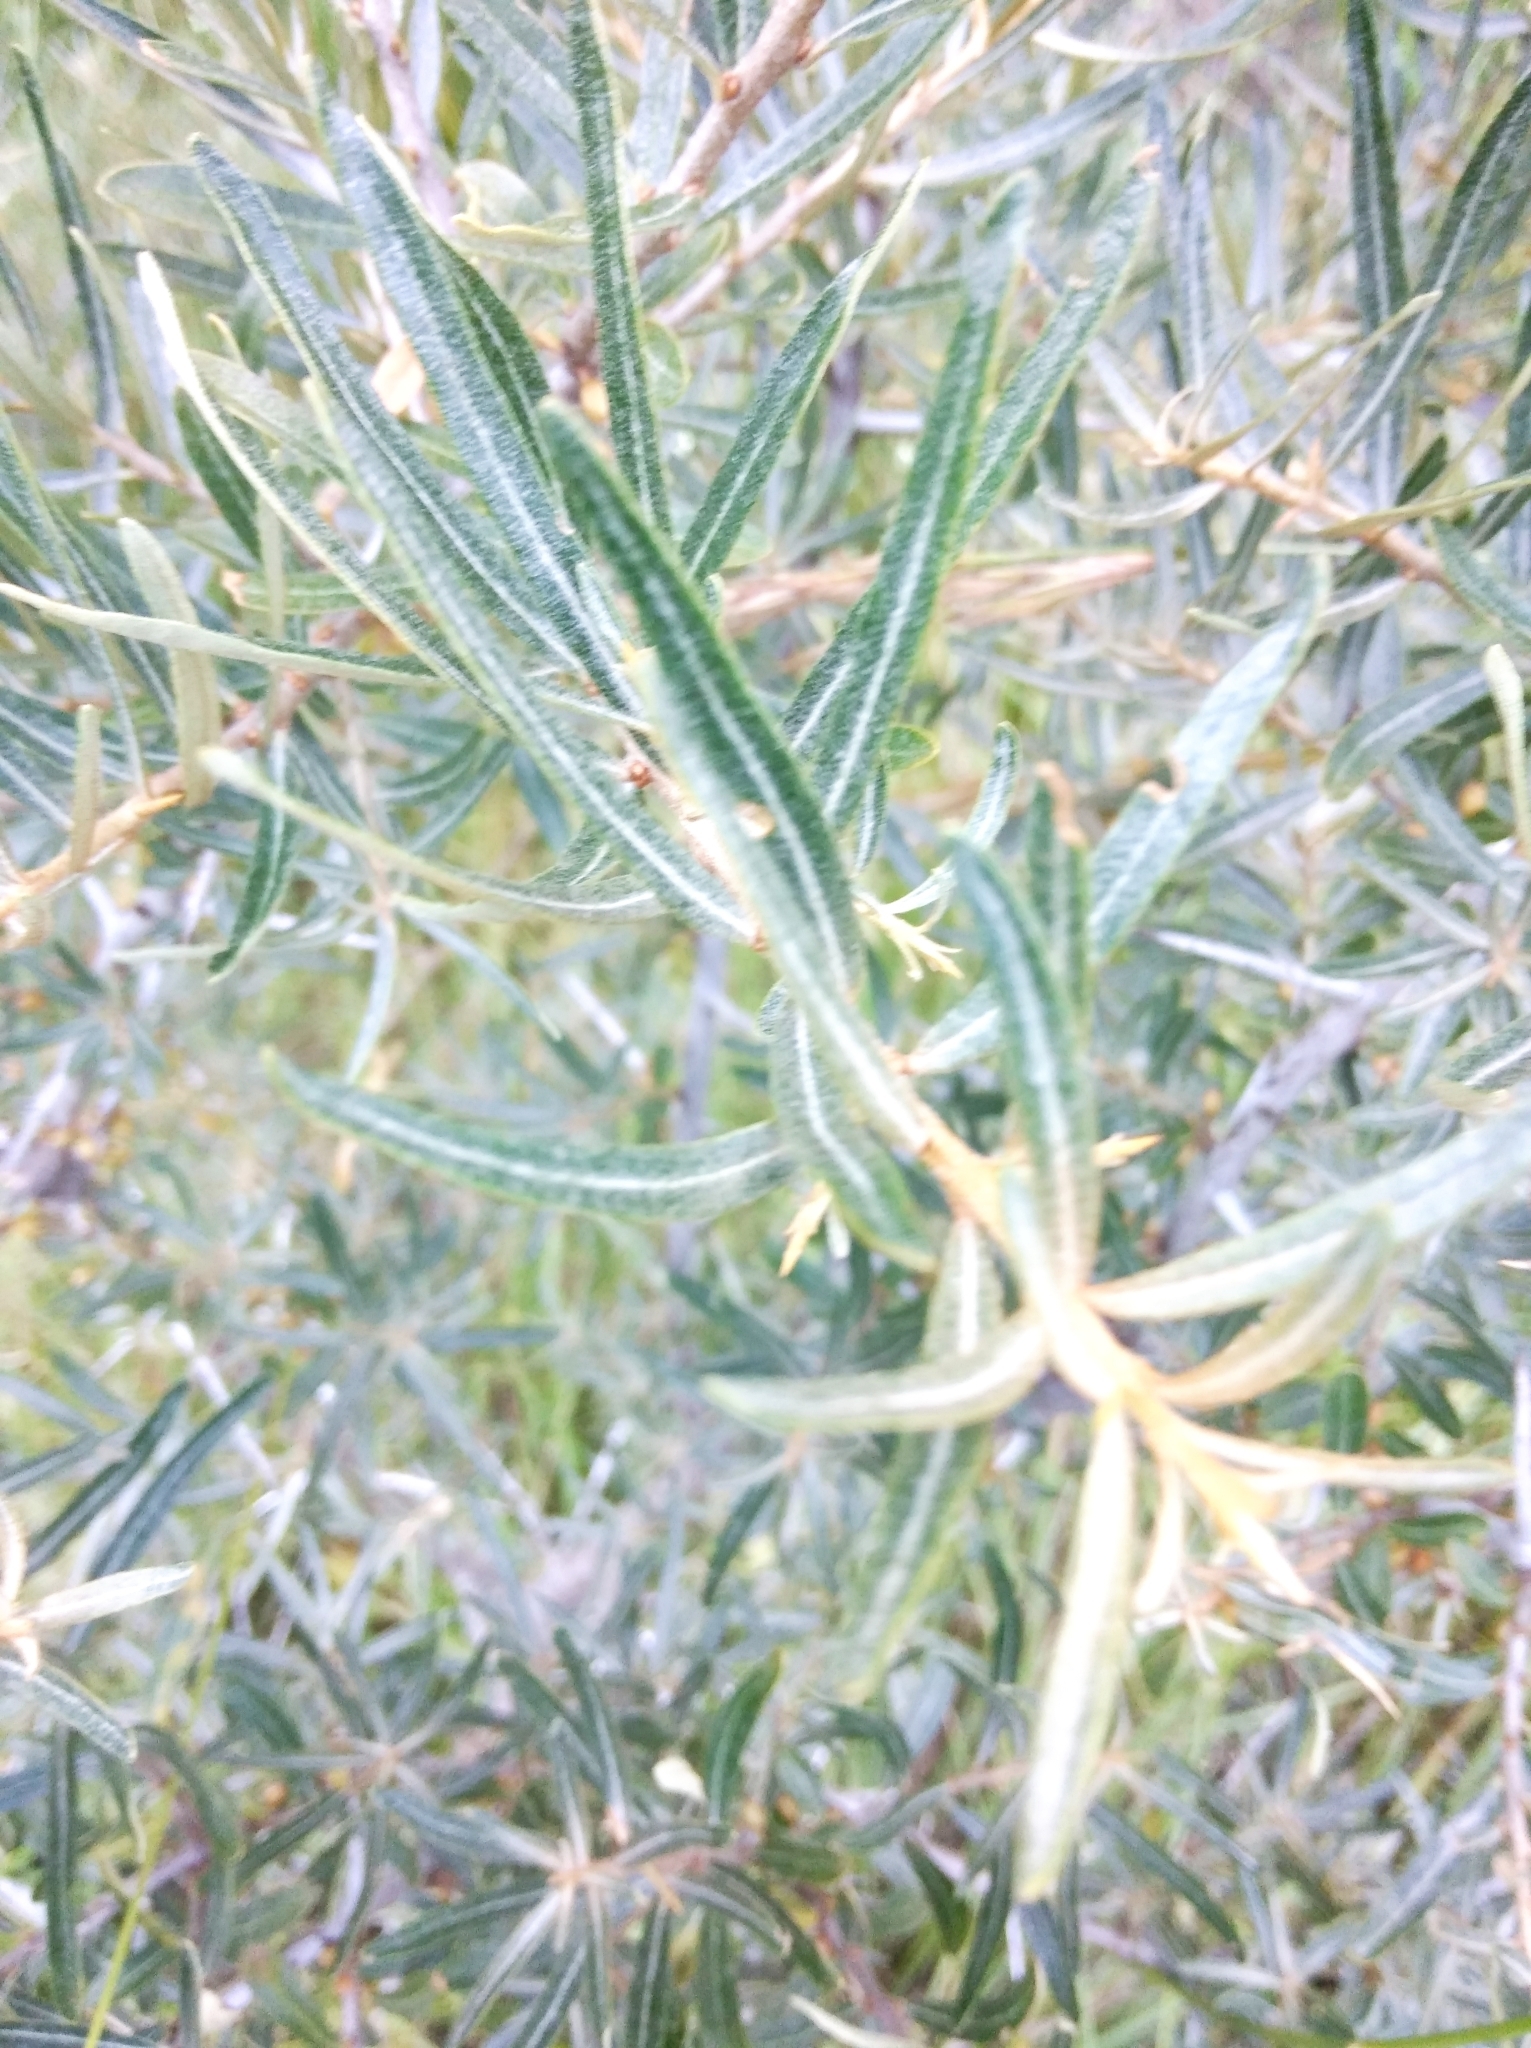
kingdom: Plantae
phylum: Tracheophyta
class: Magnoliopsida
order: Rosales
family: Elaeagnaceae
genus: Hippophae
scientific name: Hippophae rhamnoides
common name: Sea-buckthorn
